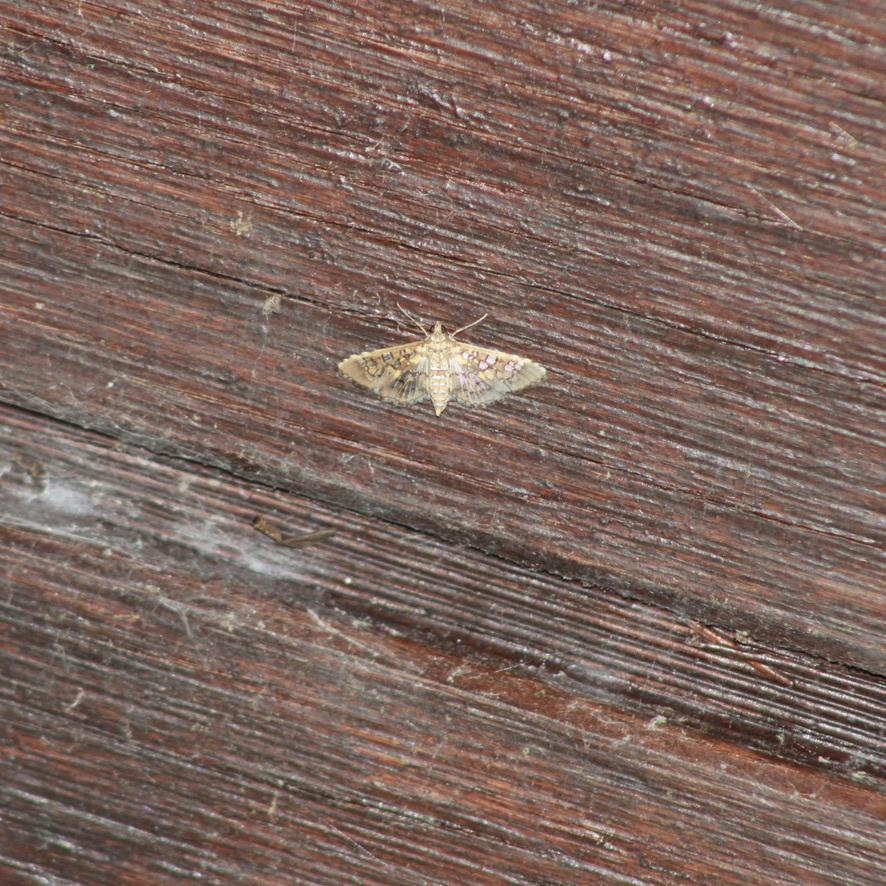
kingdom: Animalia
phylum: Arthropoda
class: Insecta
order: Lepidoptera
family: Crambidae
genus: Samea
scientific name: Samea ecclesialis
